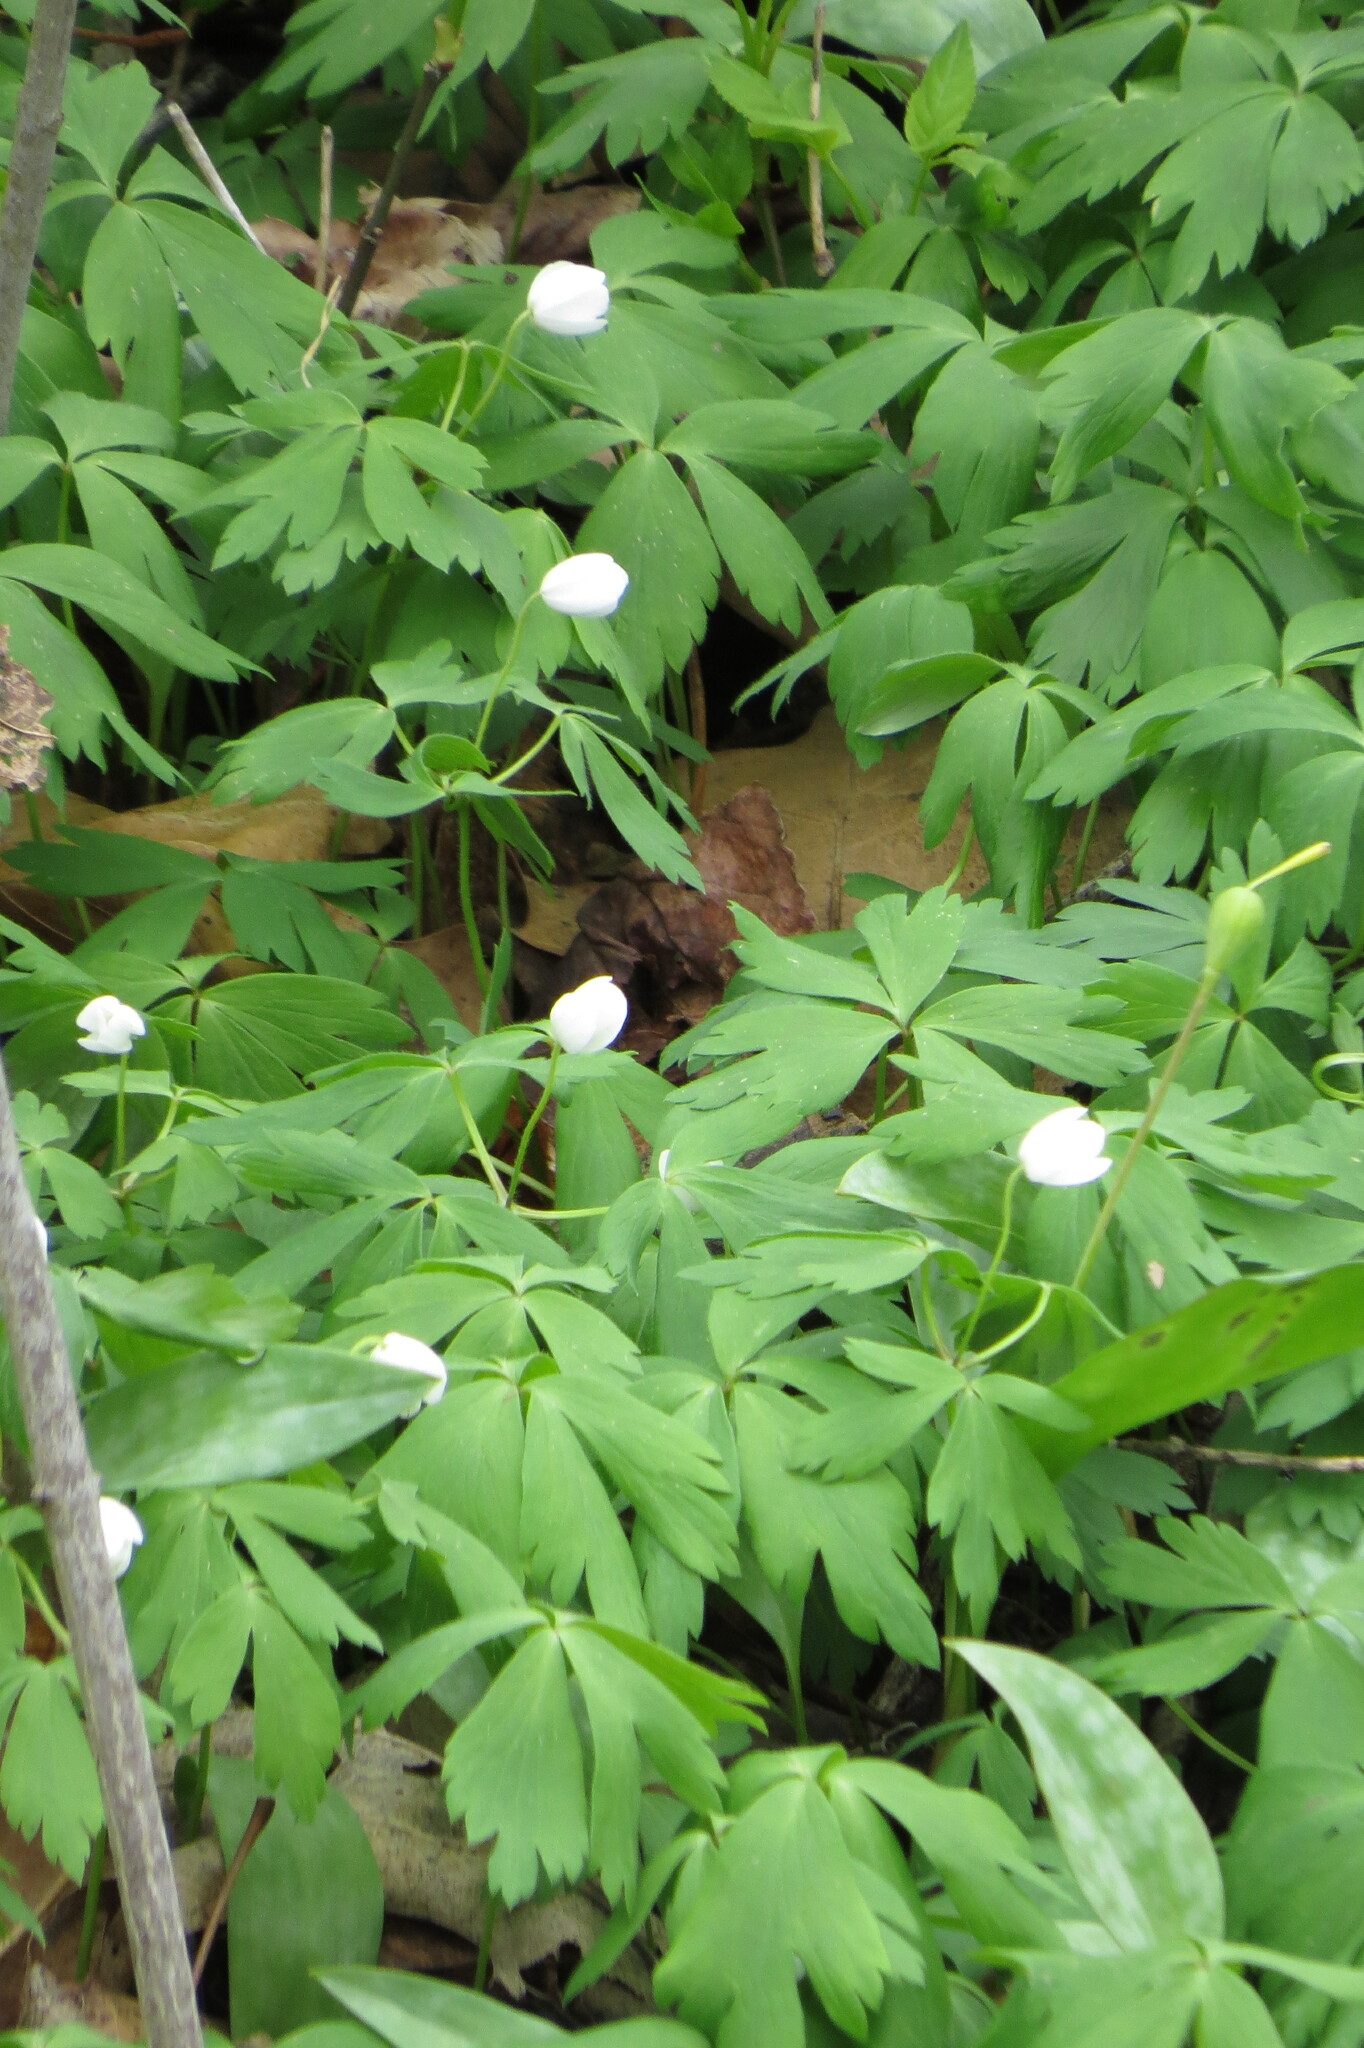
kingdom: Plantae
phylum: Tracheophyta
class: Magnoliopsida
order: Ranunculales
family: Ranunculaceae
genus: Anemone
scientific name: Anemone quinquefolia
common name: Wood anemone
